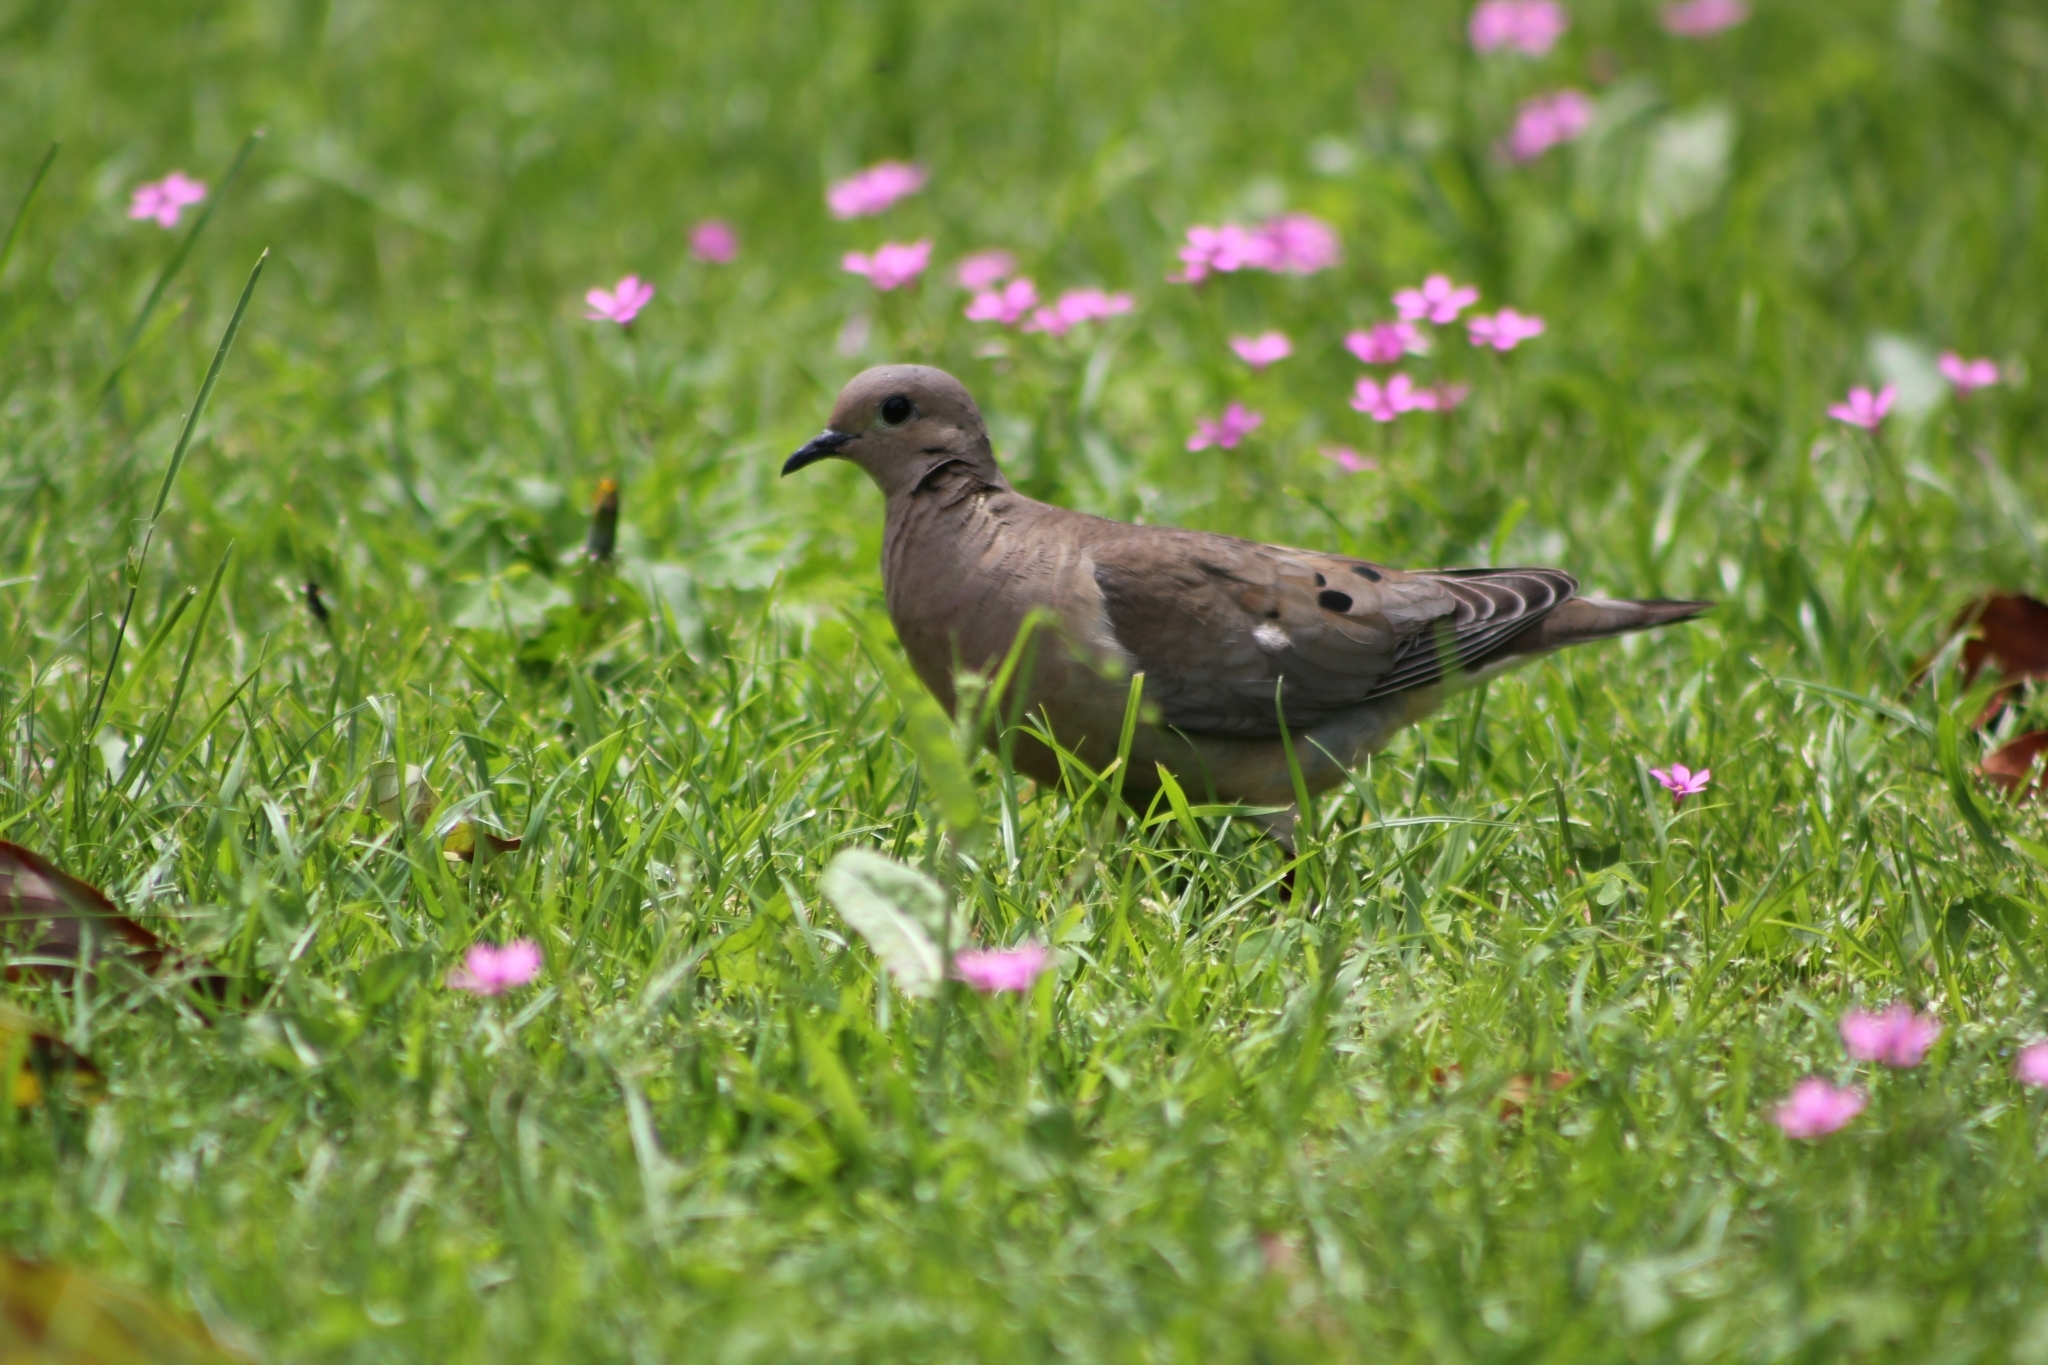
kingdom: Animalia
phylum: Chordata
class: Aves
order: Columbiformes
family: Columbidae
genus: Zenaida
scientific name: Zenaida auriculata
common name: Eared dove
